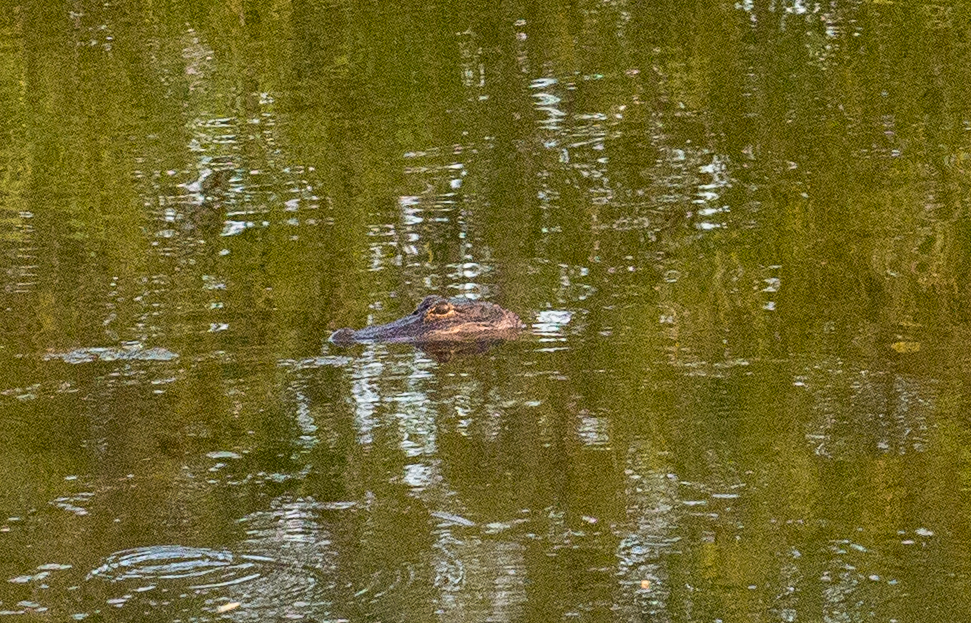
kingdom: Animalia
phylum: Chordata
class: Crocodylia
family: Alligatoridae
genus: Alligator
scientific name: Alligator mississippiensis
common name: American alligator
